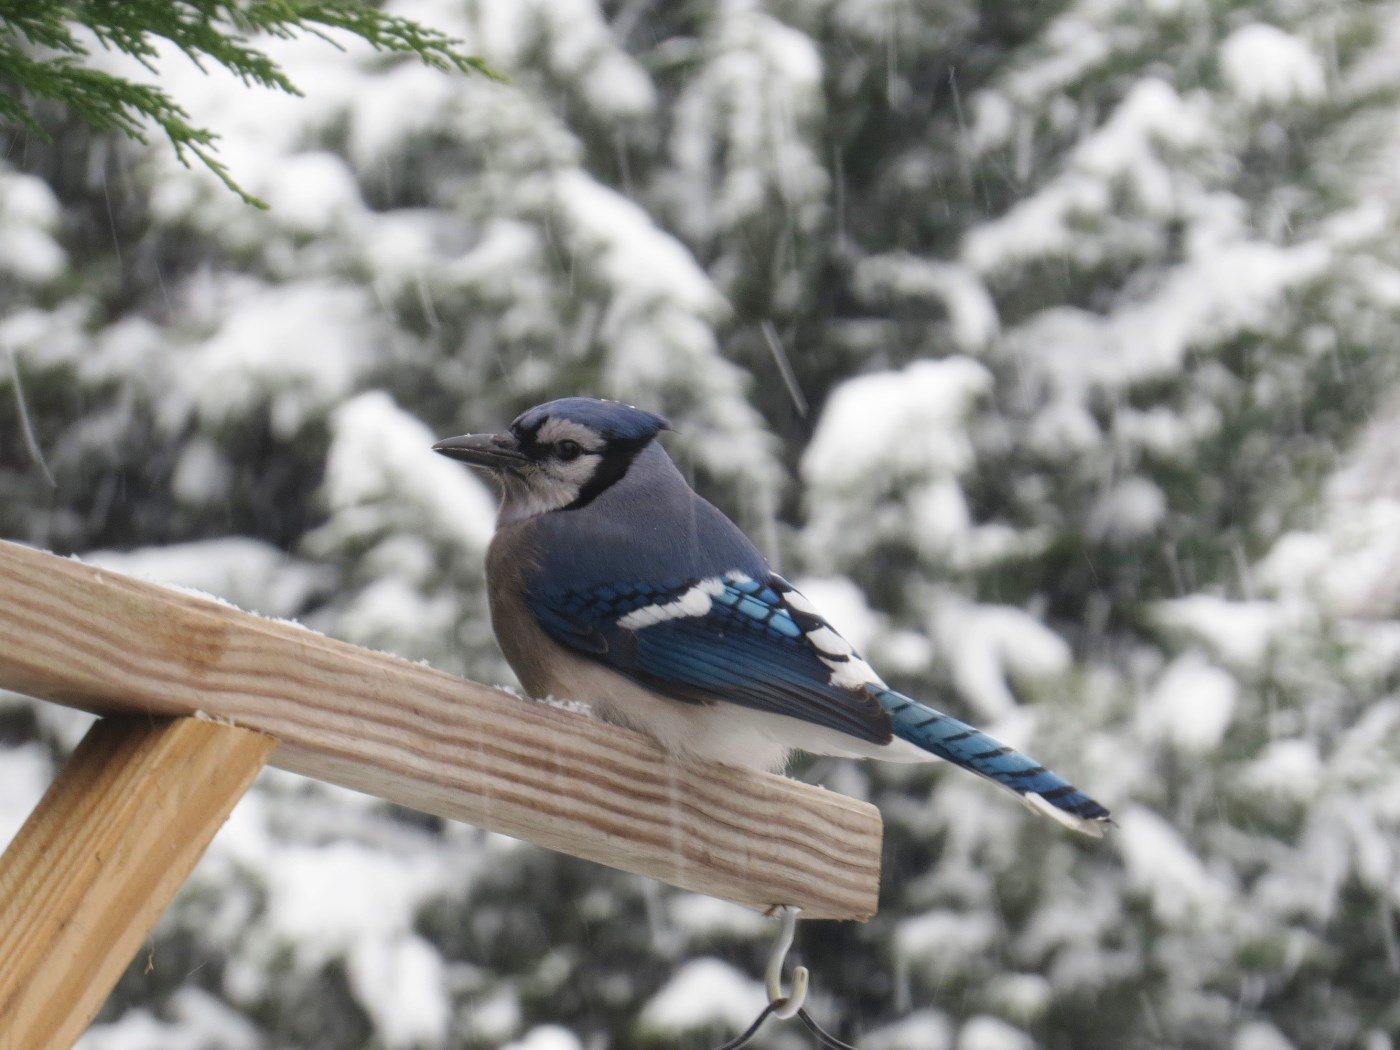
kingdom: Animalia
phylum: Chordata
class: Aves
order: Passeriformes
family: Corvidae
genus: Cyanocitta
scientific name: Cyanocitta cristata
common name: Blue jay
